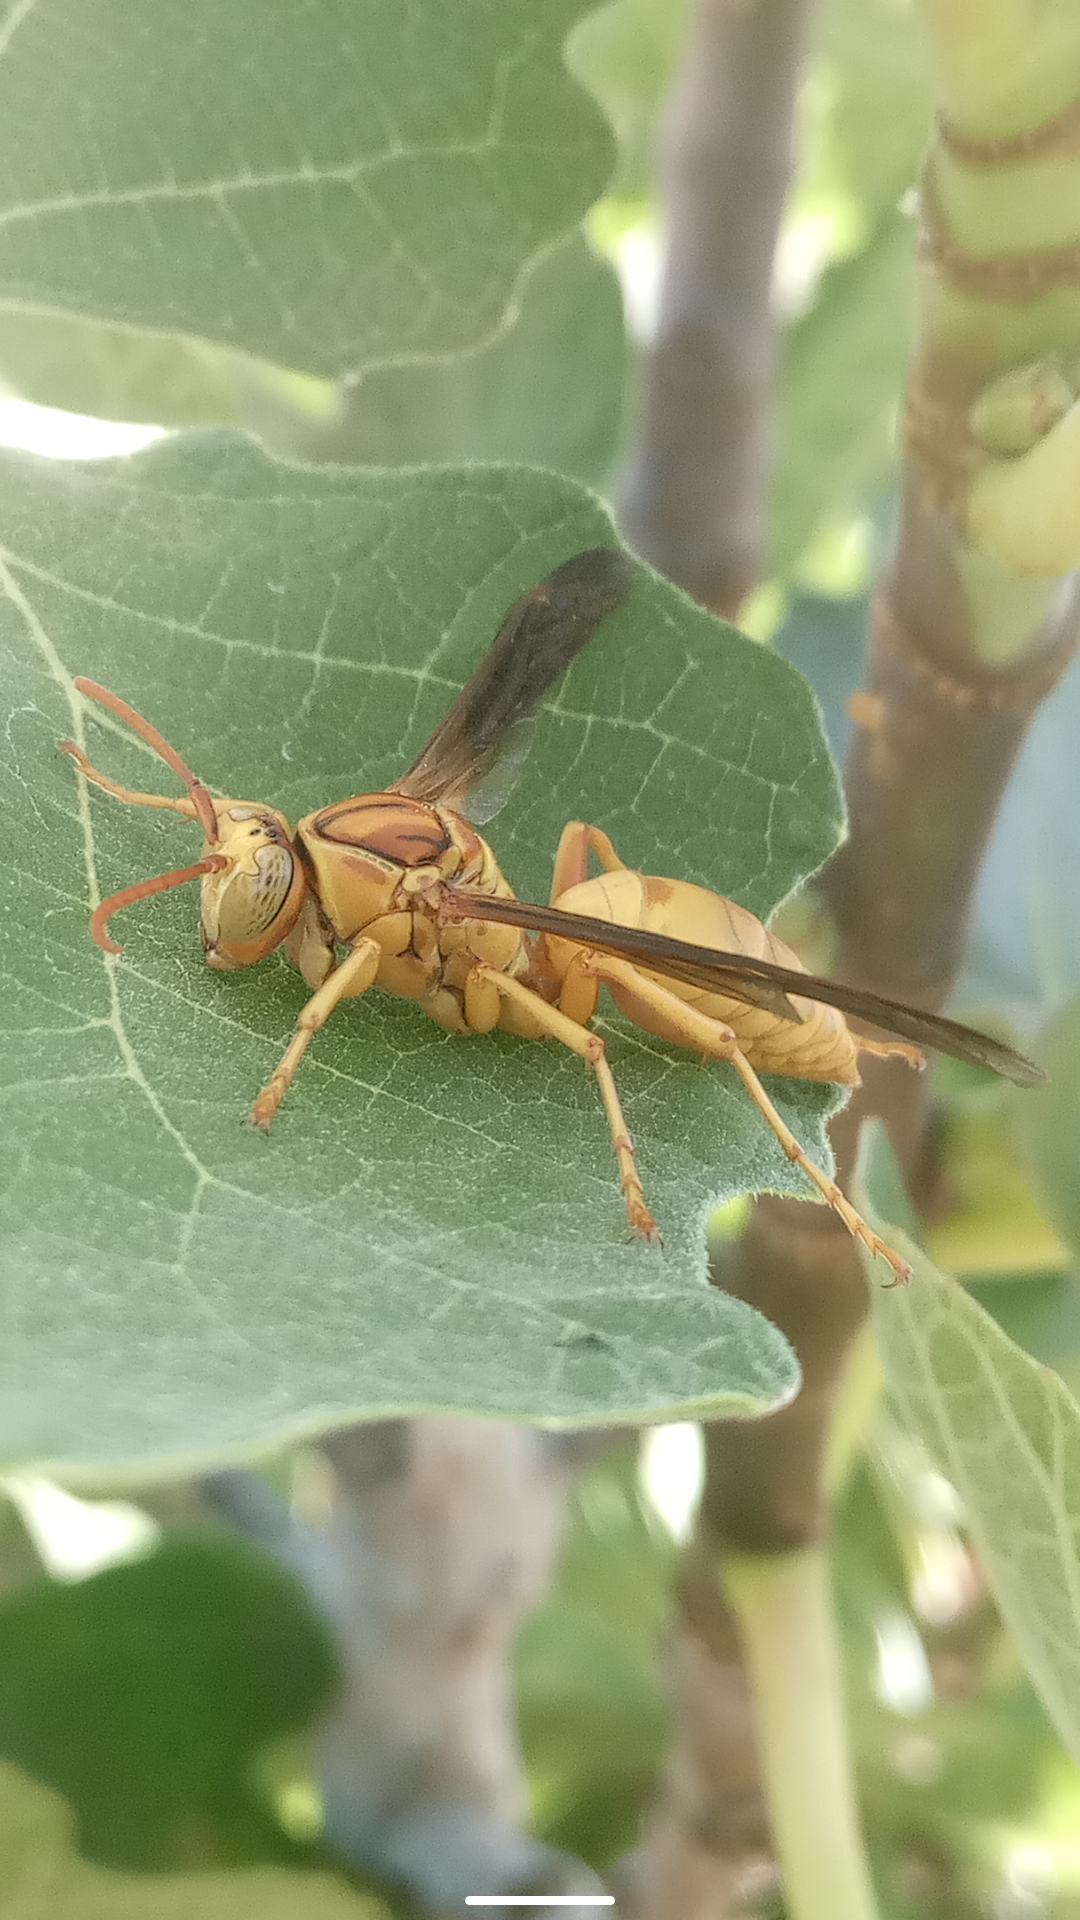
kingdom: Animalia
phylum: Arthropoda
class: Insecta
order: Hymenoptera
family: Eumenidae
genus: Polistes
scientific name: Polistes flavus
